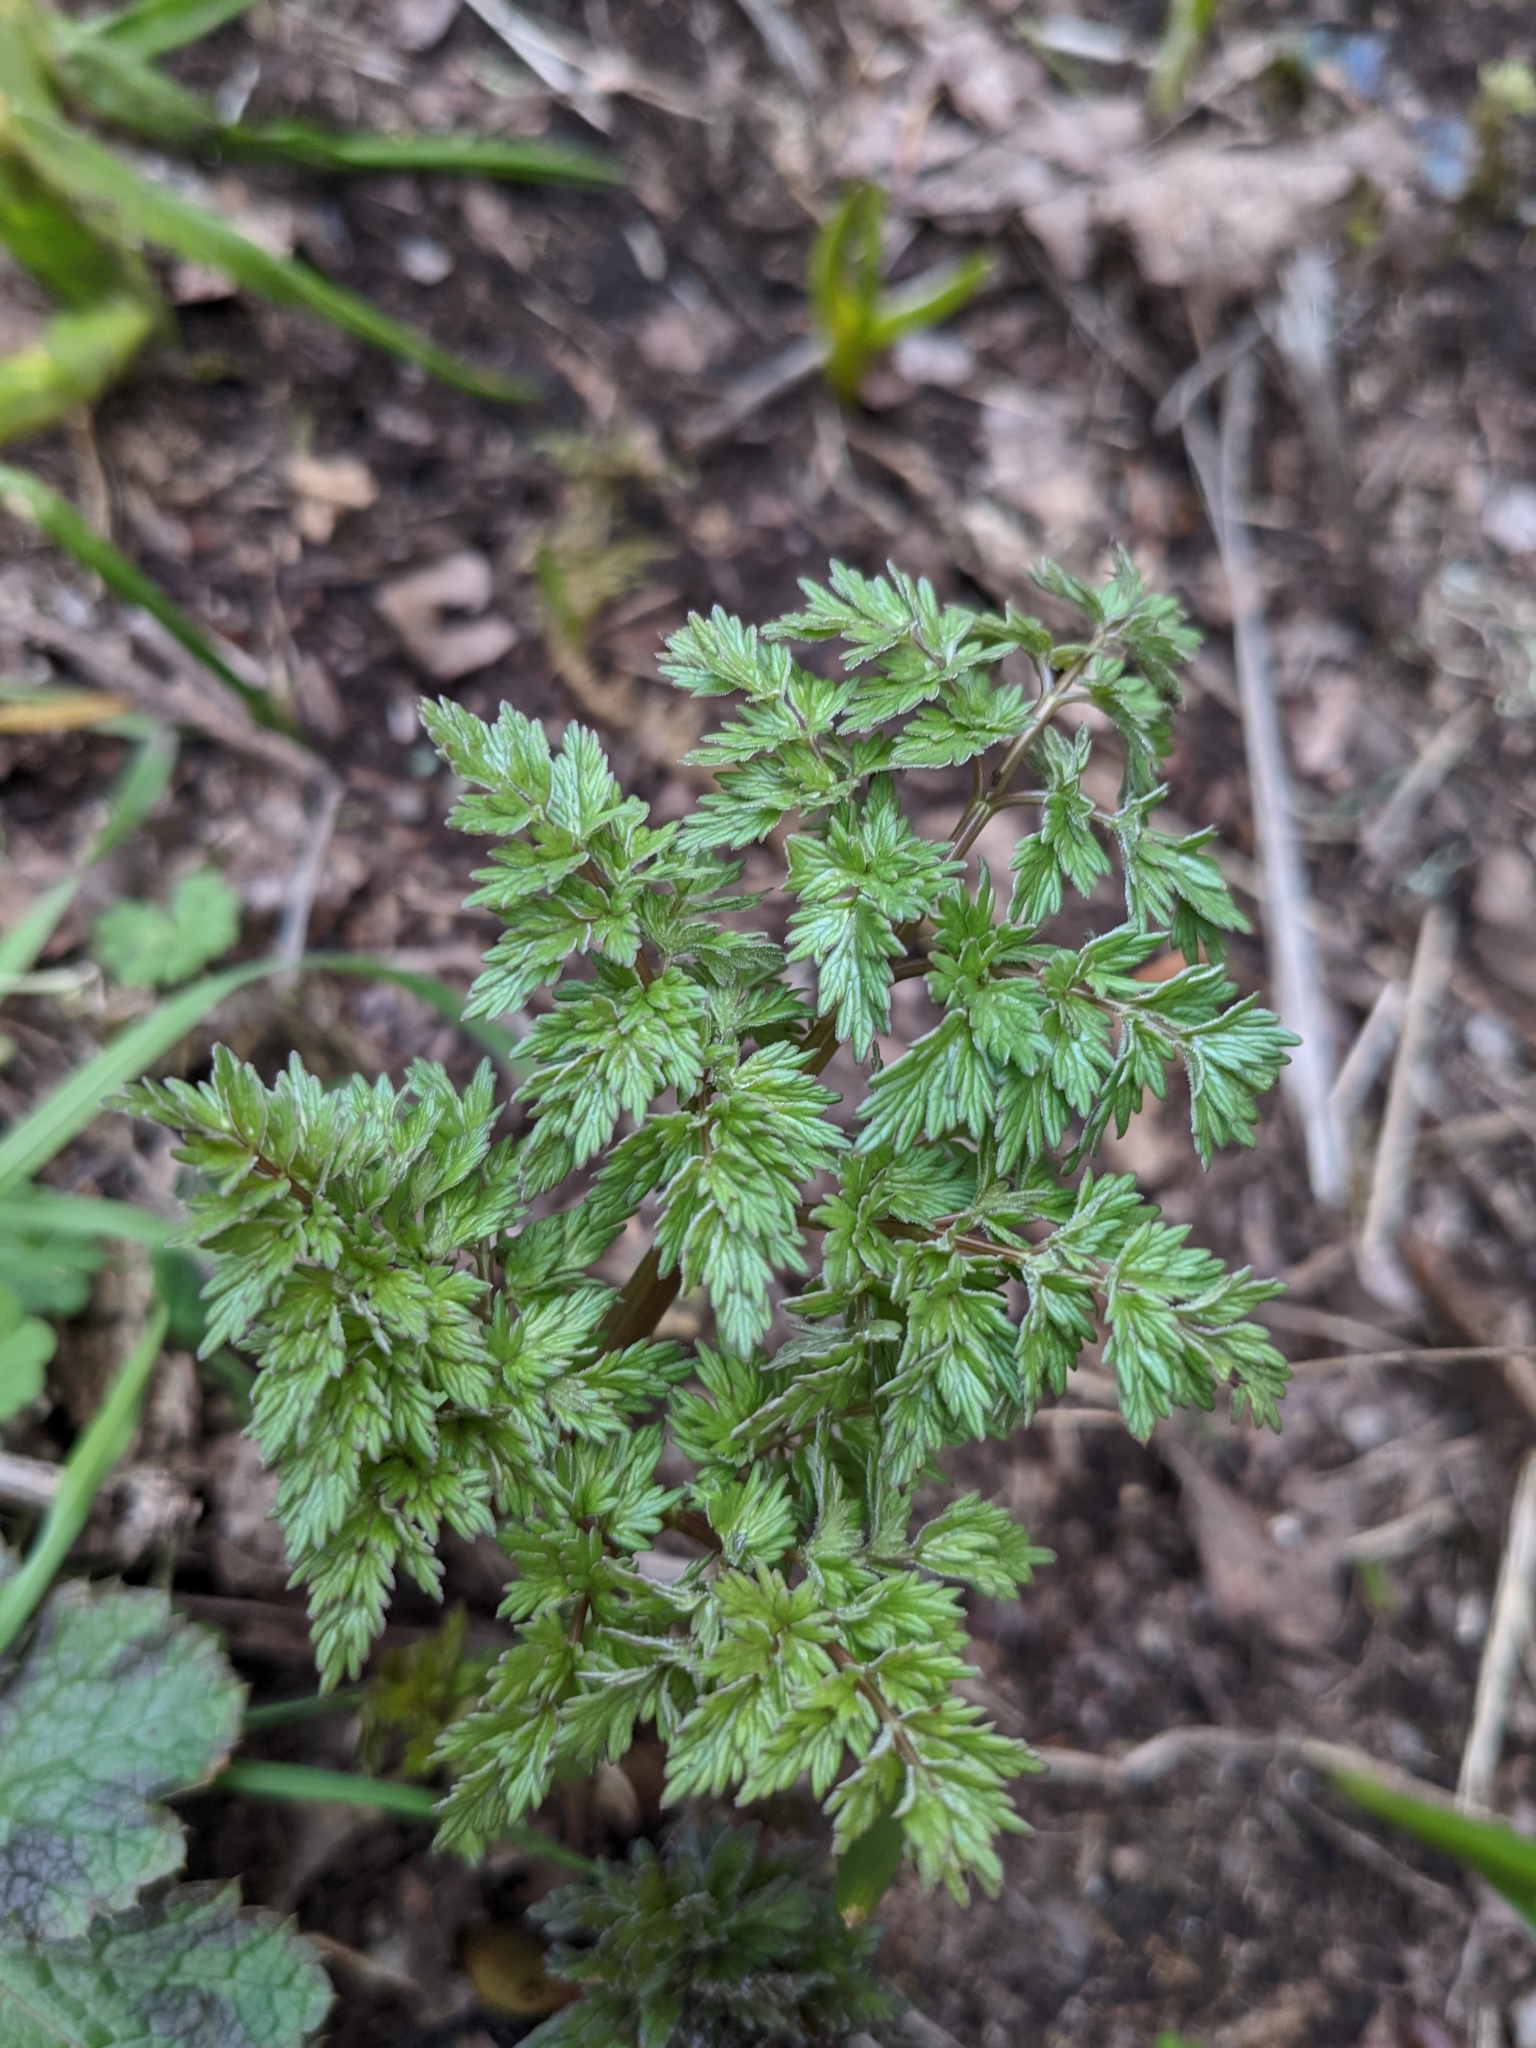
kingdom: Plantae
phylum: Tracheophyta
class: Magnoliopsida
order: Apiales
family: Apiaceae
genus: Lomatium
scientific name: Lomatium dissectum
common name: Lomatium
